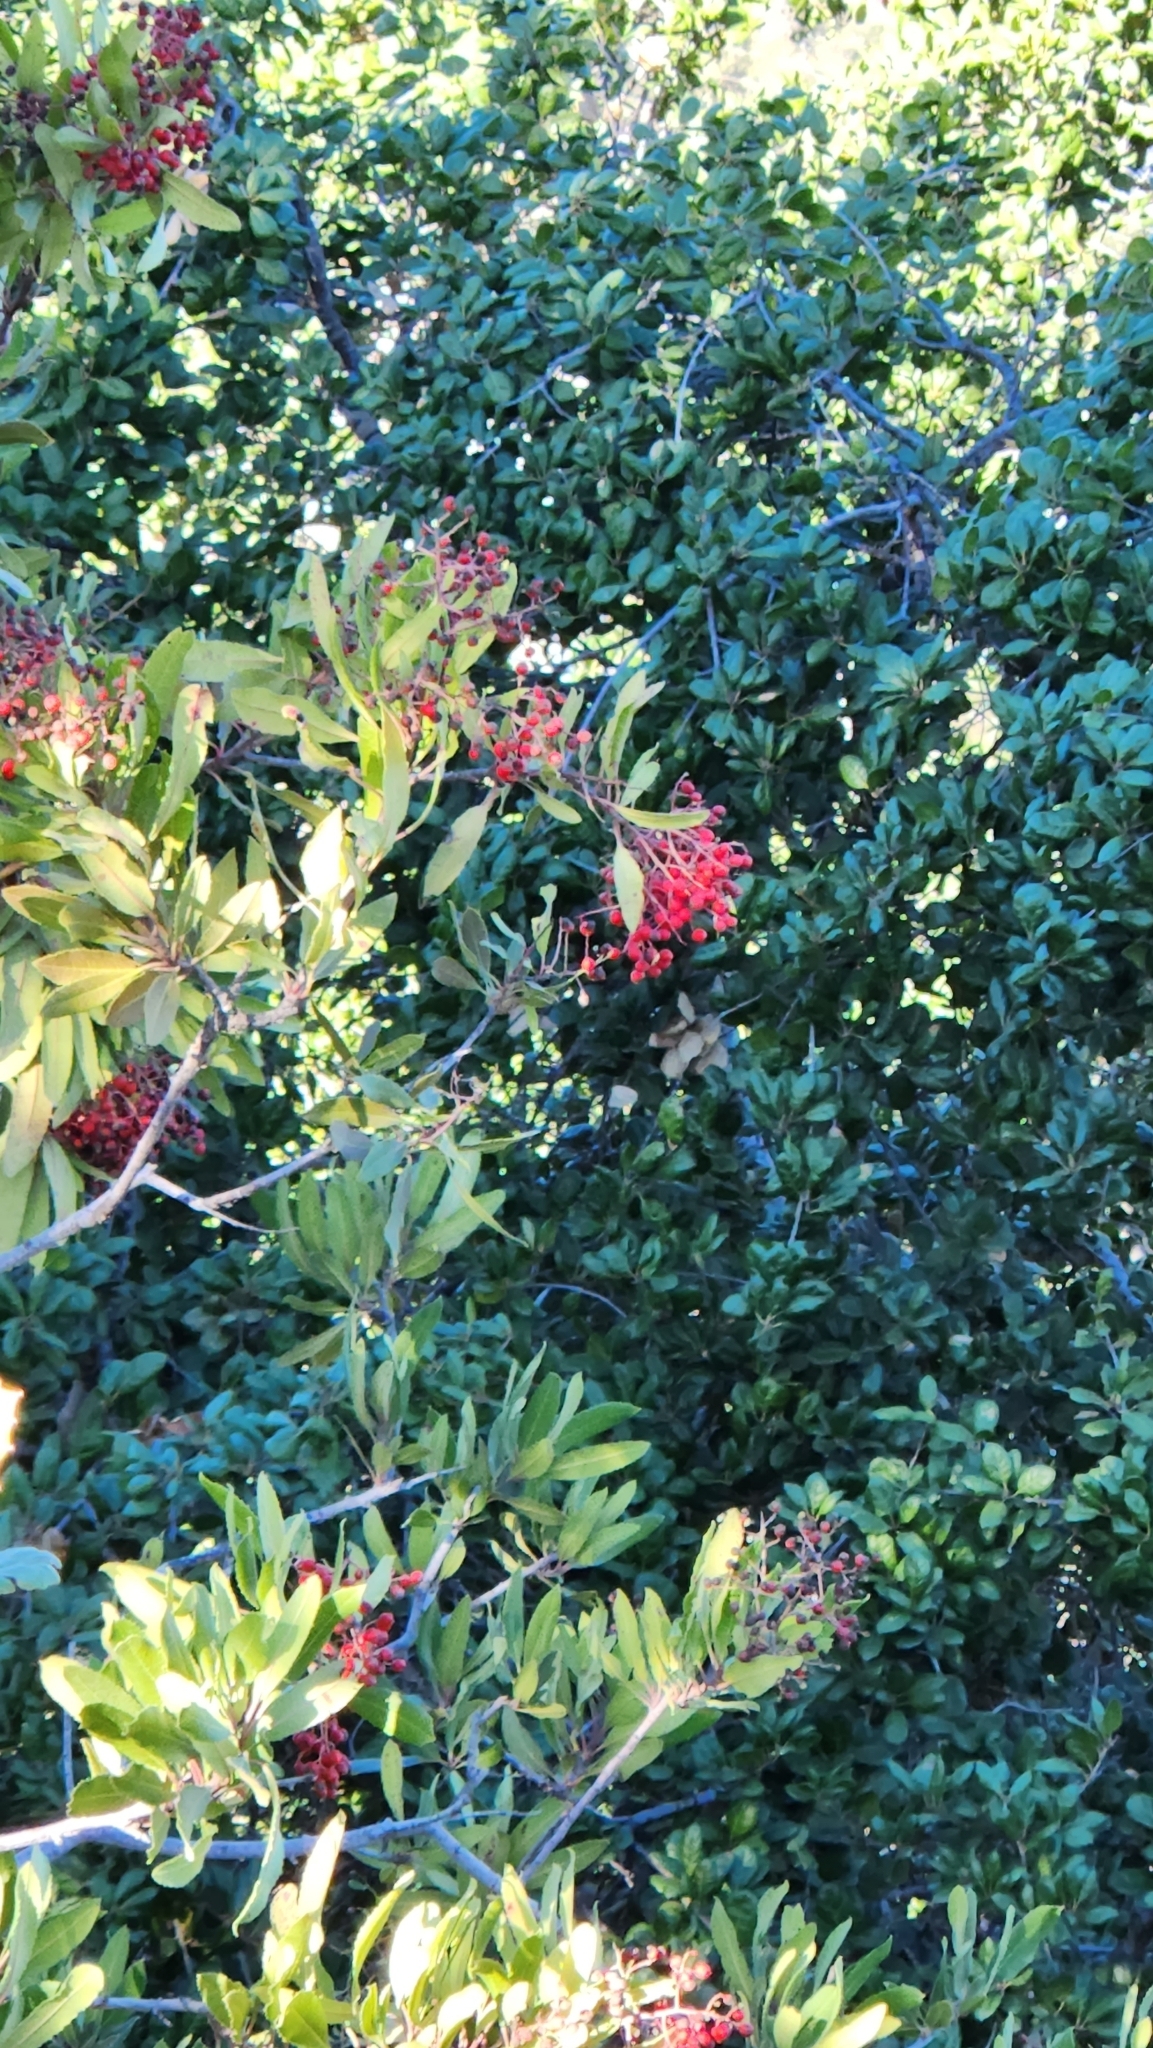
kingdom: Plantae
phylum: Tracheophyta
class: Magnoliopsida
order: Rosales
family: Rosaceae
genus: Heteromeles
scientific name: Heteromeles arbutifolia
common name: California-holly
